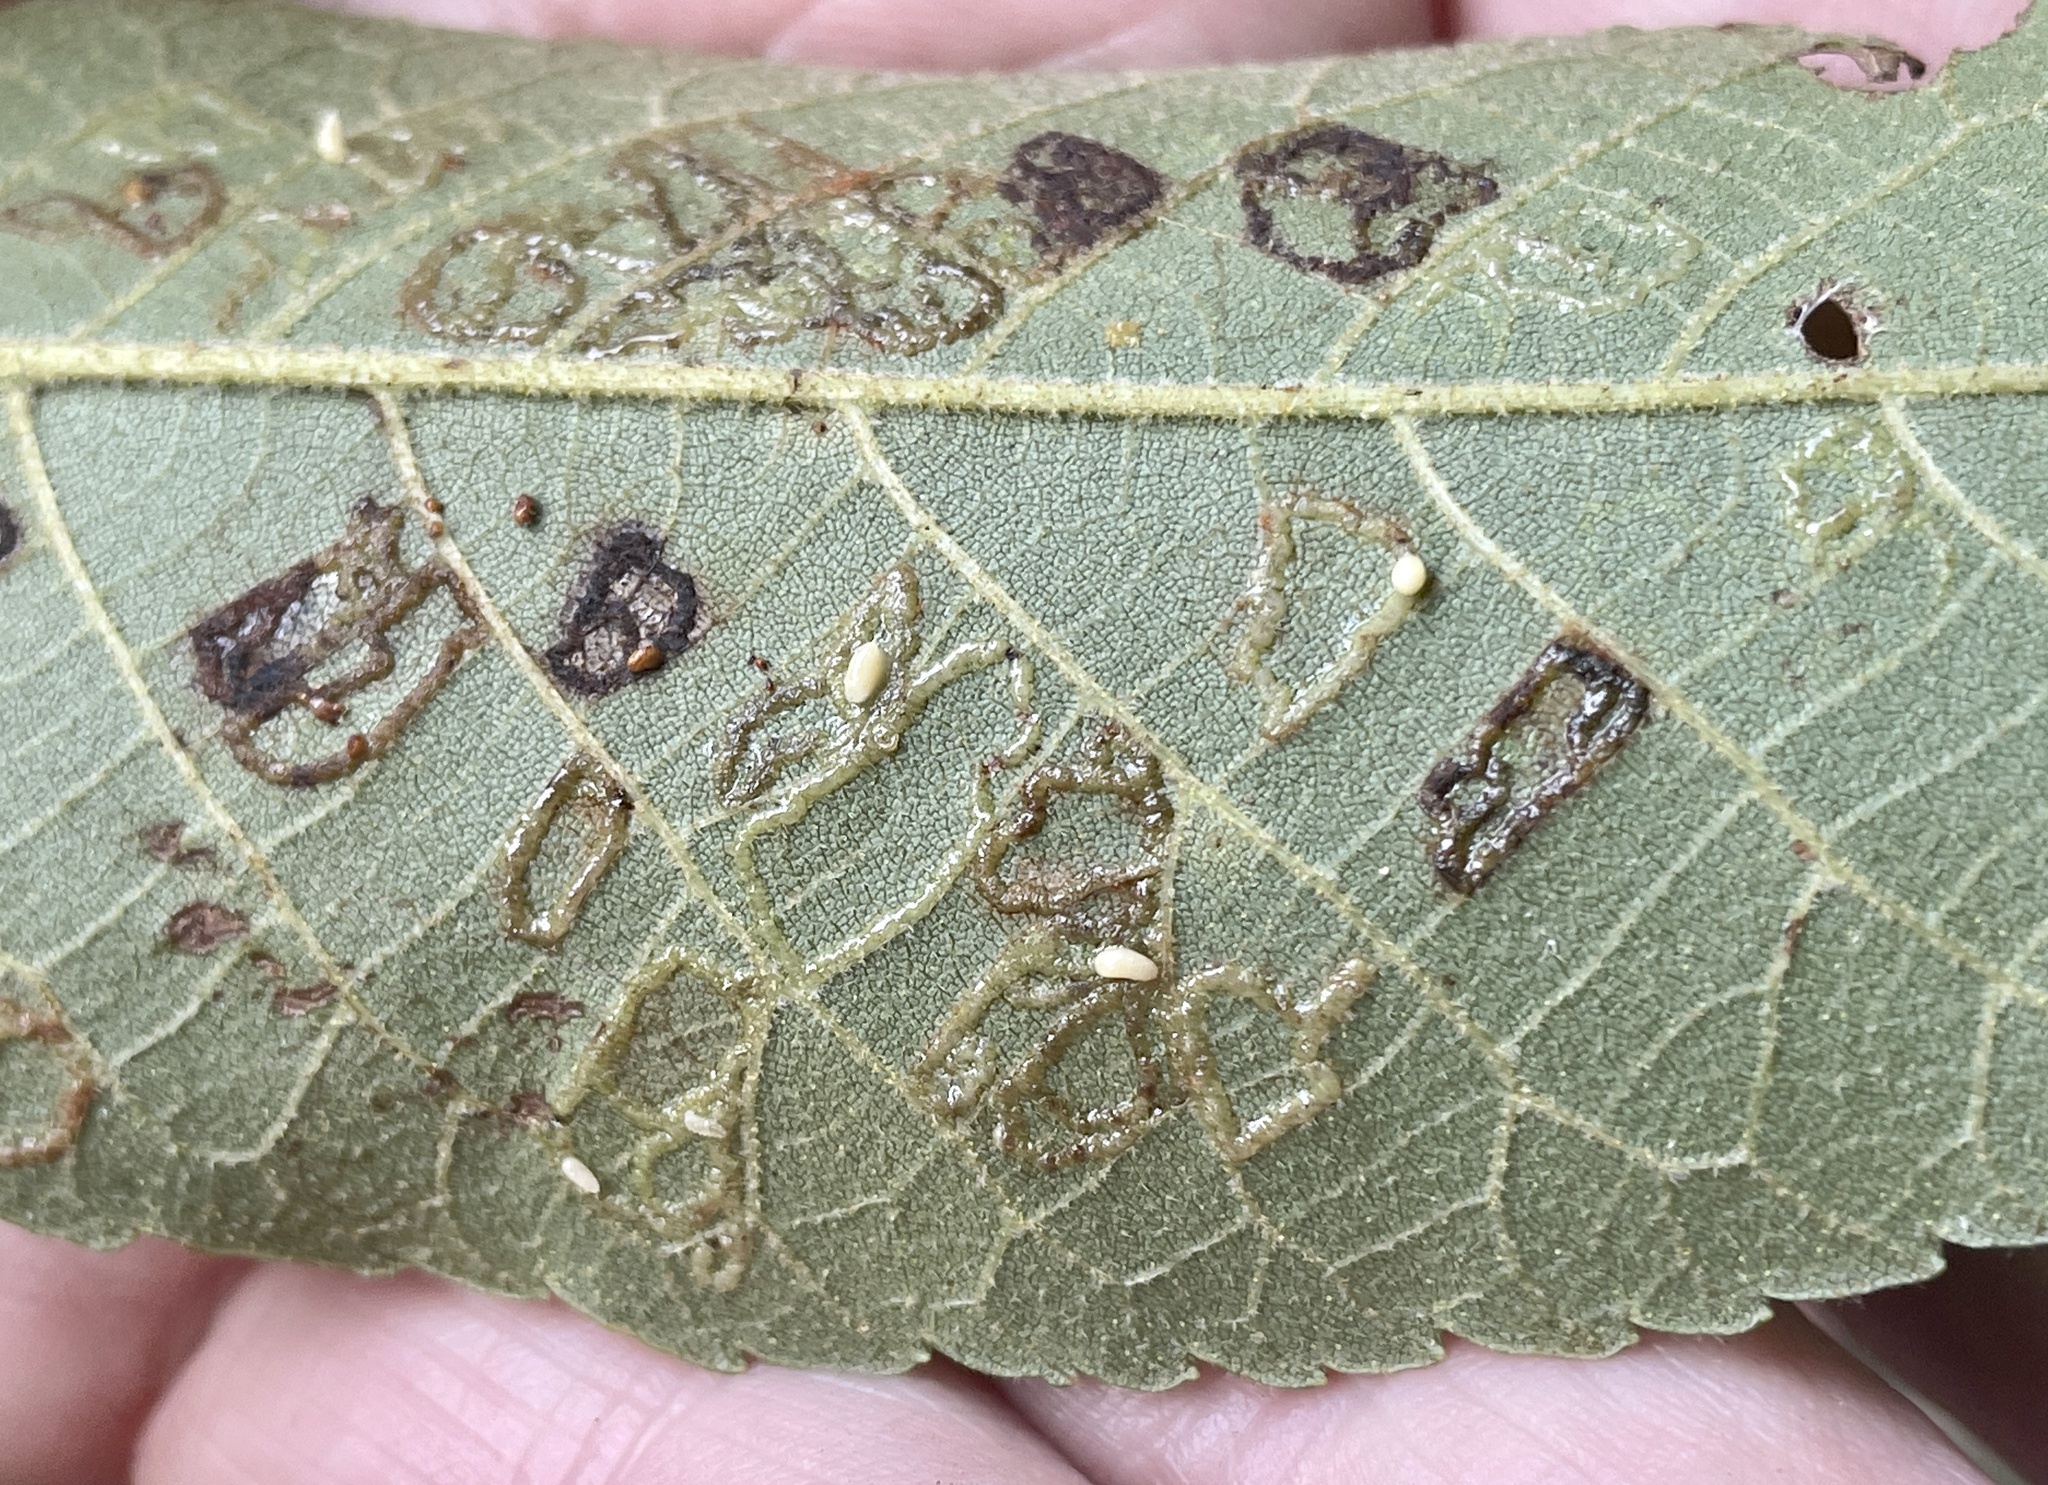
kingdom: Animalia
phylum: Arthropoda
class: Insecta
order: Diptera
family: Cecidomyiidae
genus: Gliaspilota
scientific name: Gliaspilota glutinosa
